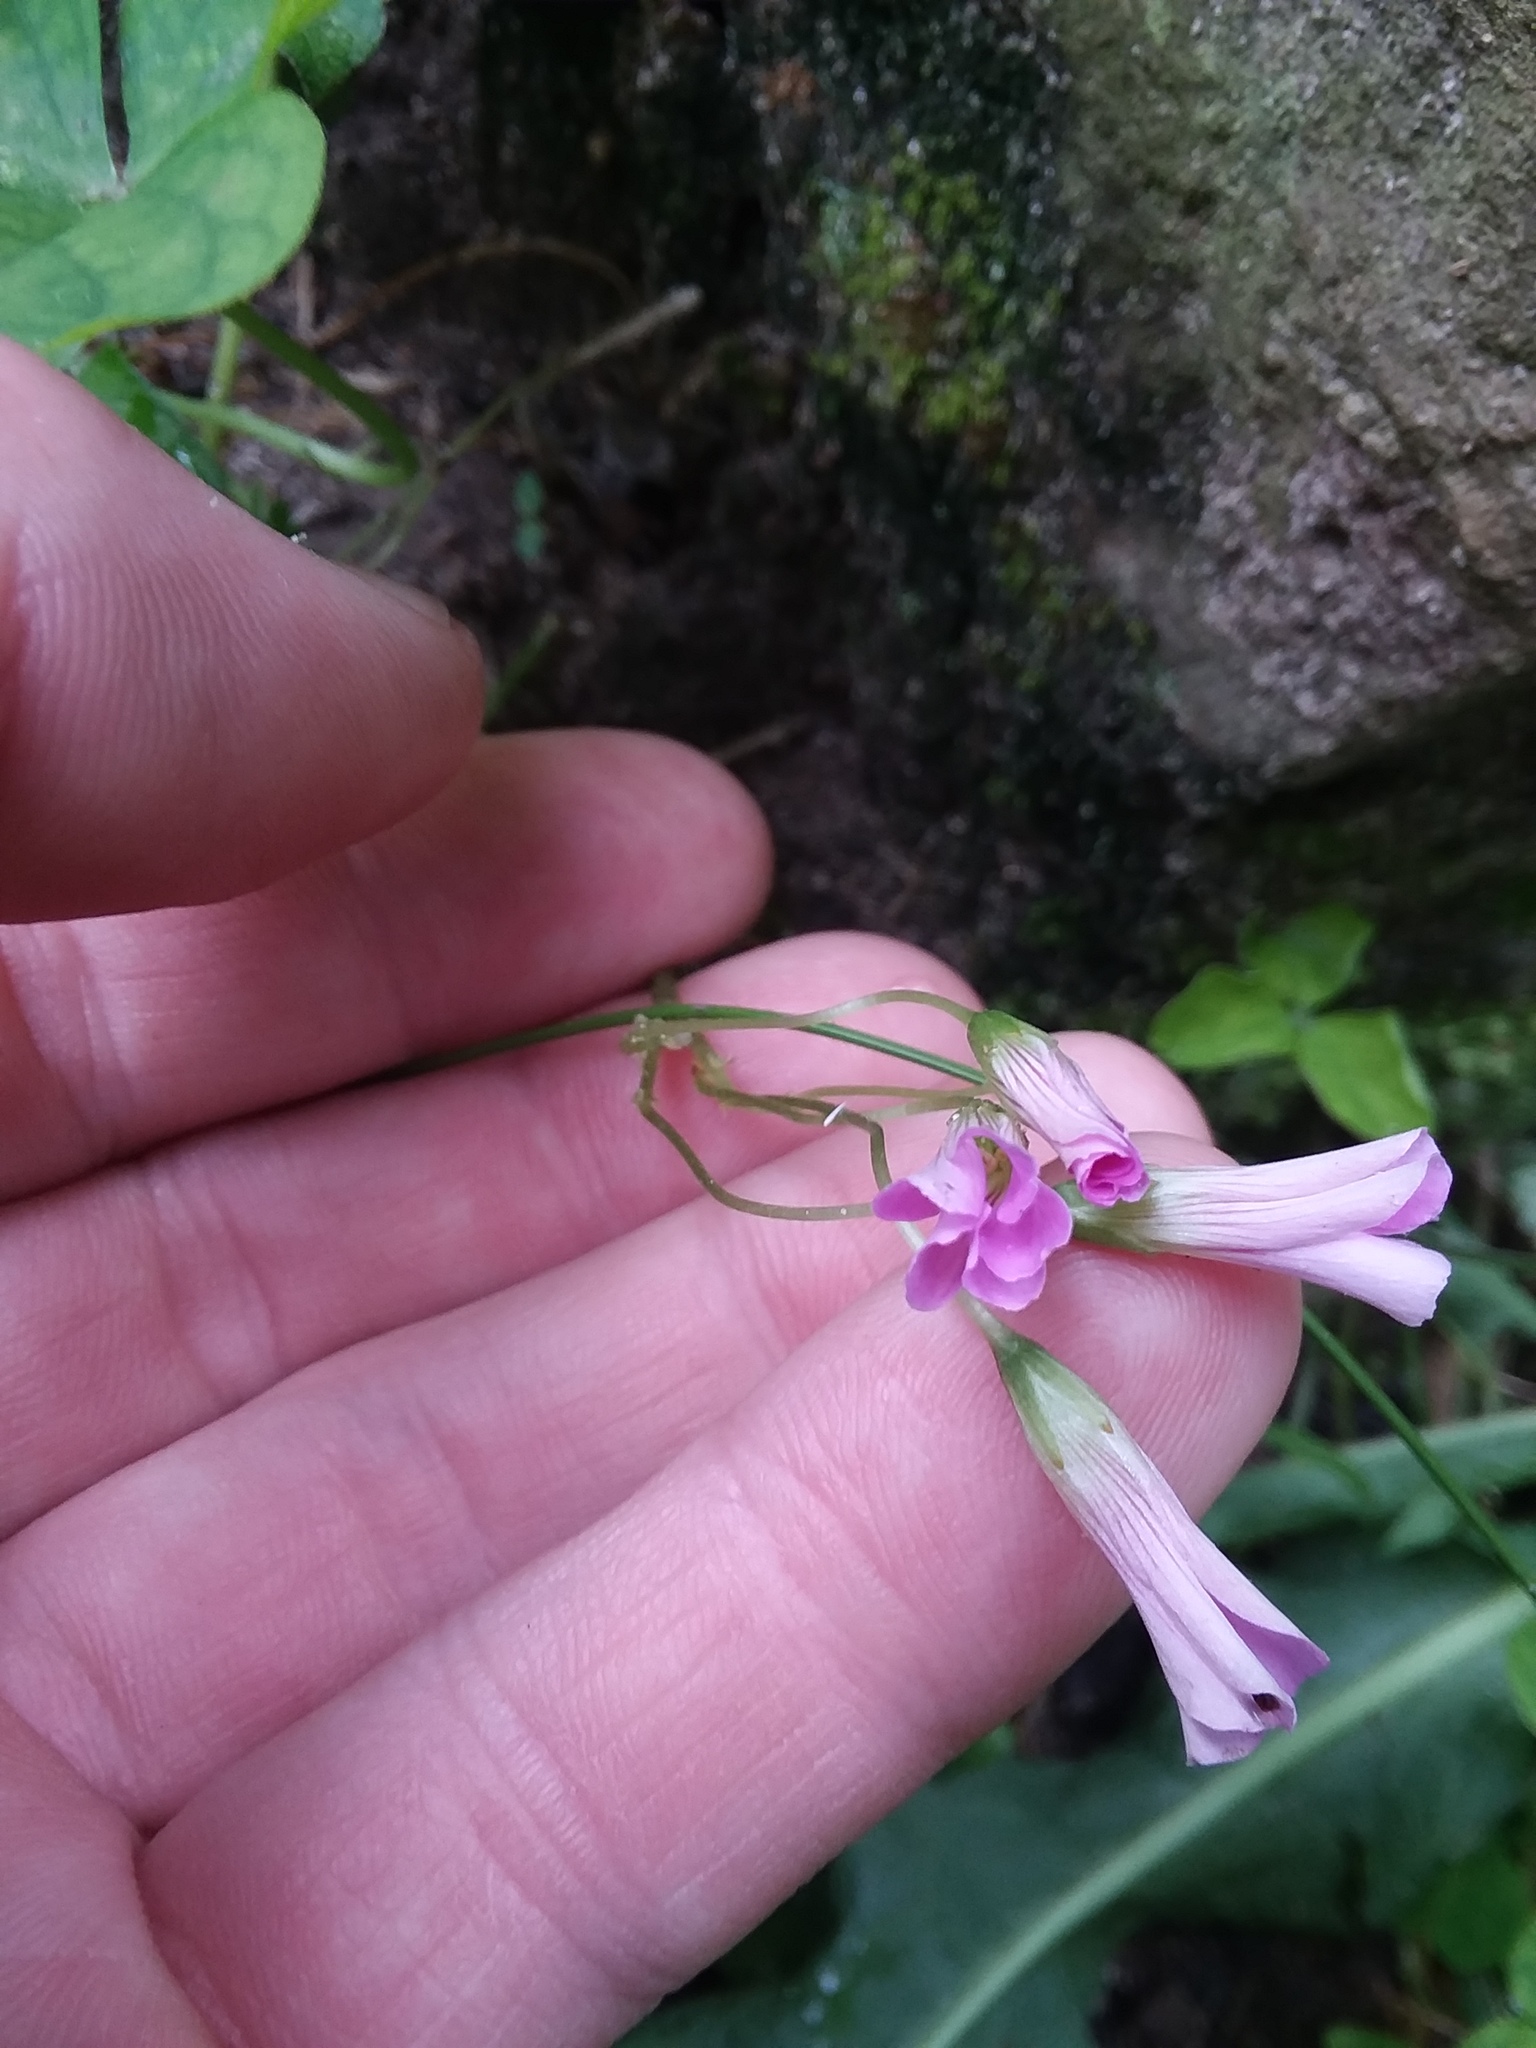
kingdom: Plantae
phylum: Tracheophyta
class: Magnoliopsida
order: Oxalidales
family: Oxalidaceae
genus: Oxalis
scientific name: Oxalis debilis
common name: Large-flowered pink-sorrel
